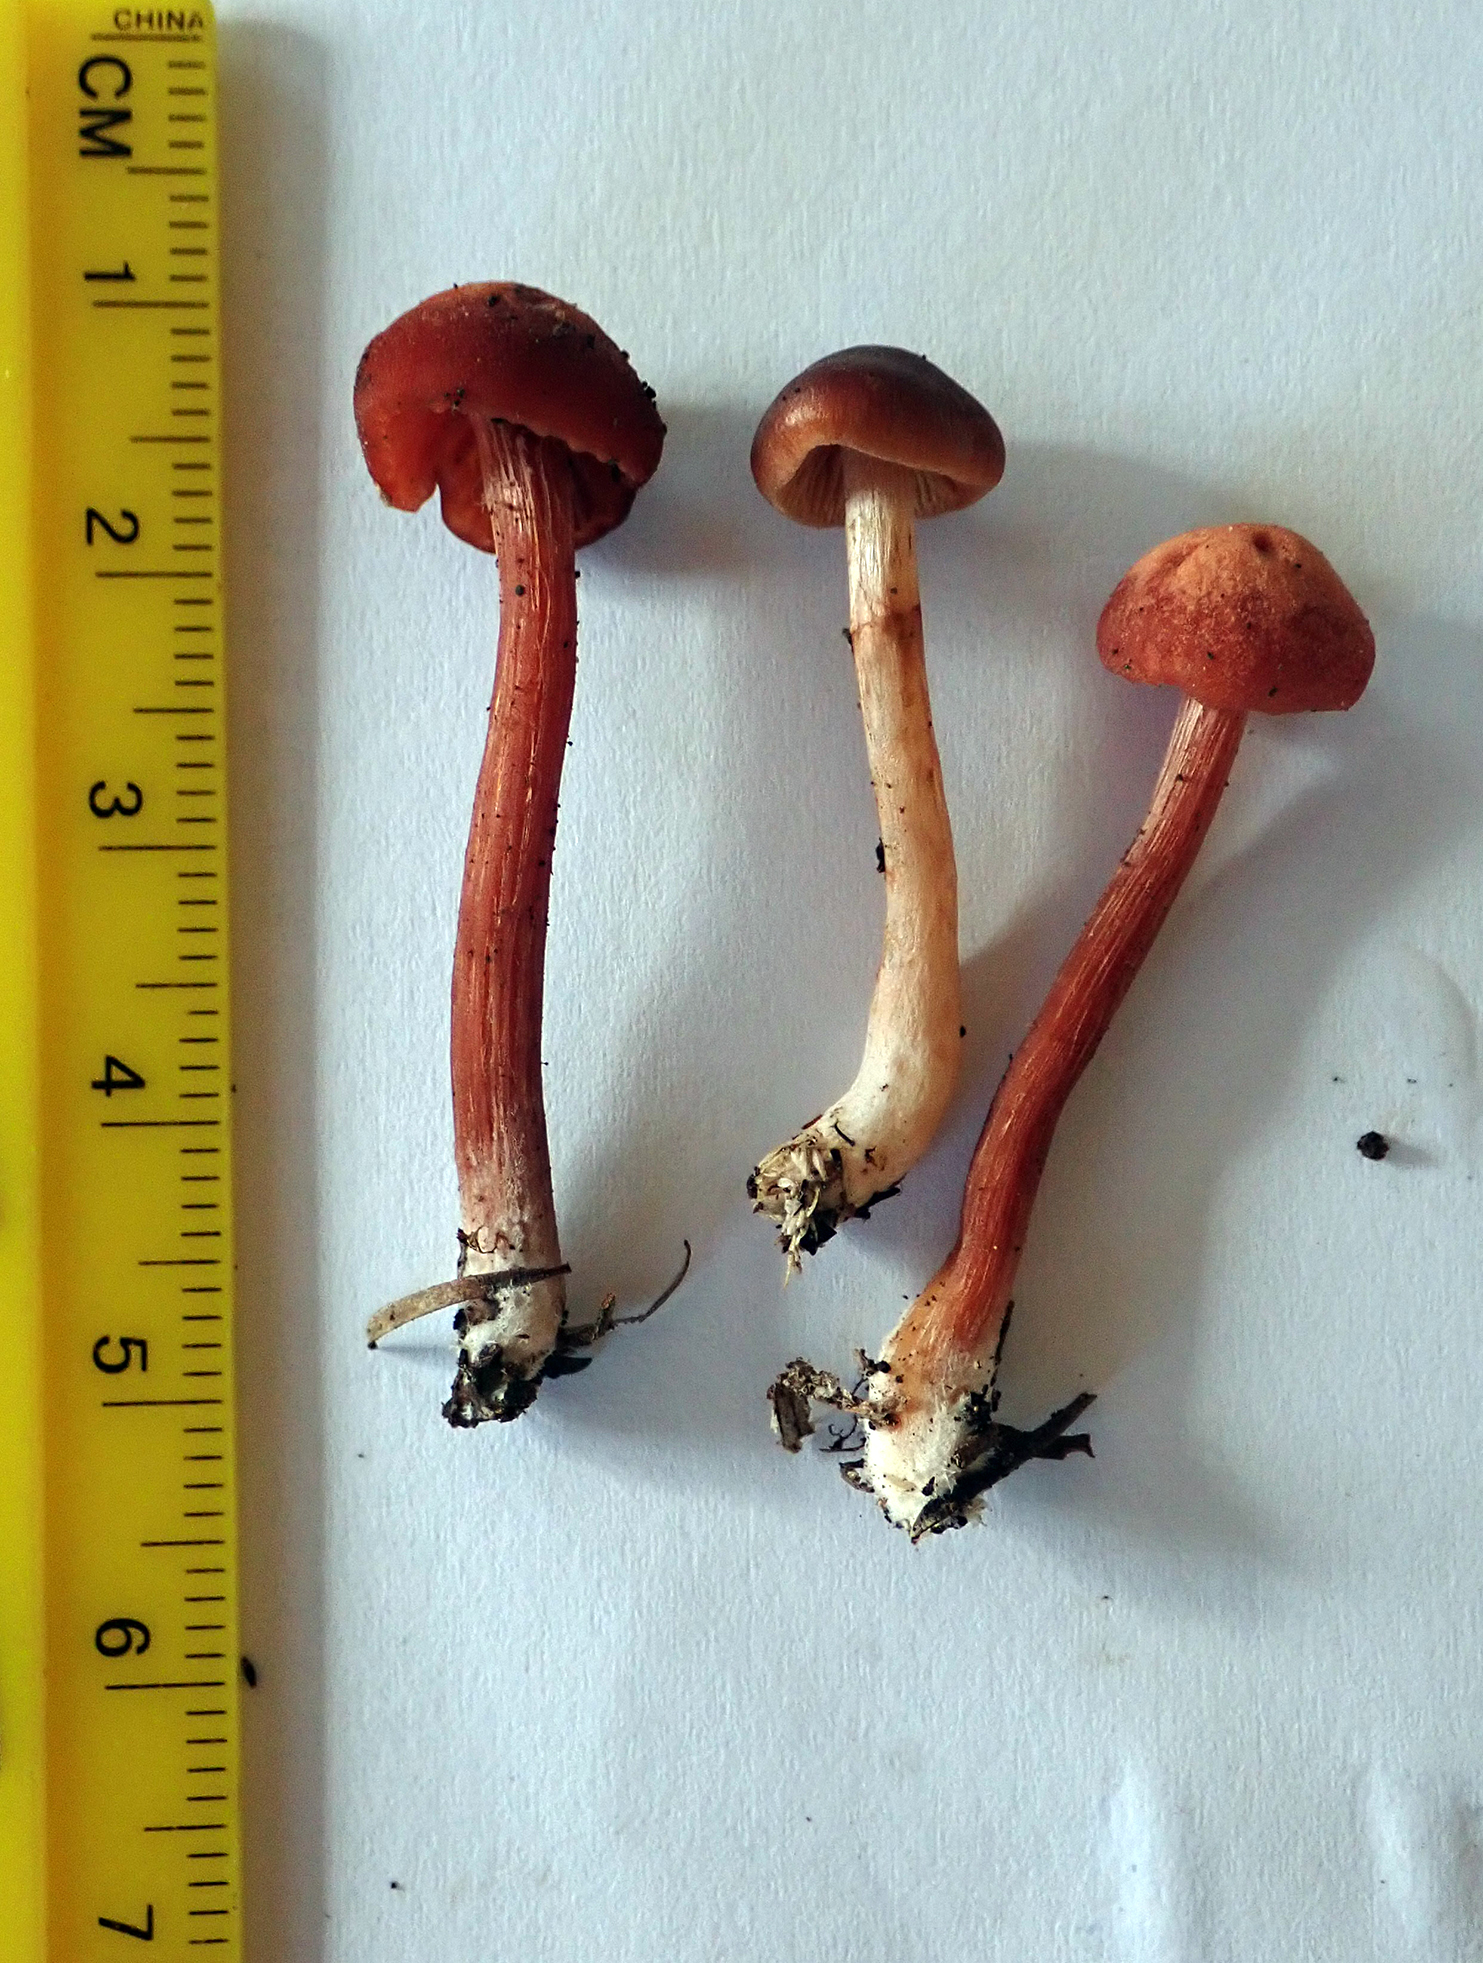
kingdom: Fungi
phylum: Basidiomycota
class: Agaricomycetes
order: Agaricales
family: Hydnangiaceae
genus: Laccaria
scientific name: Laccaria paraphysata
